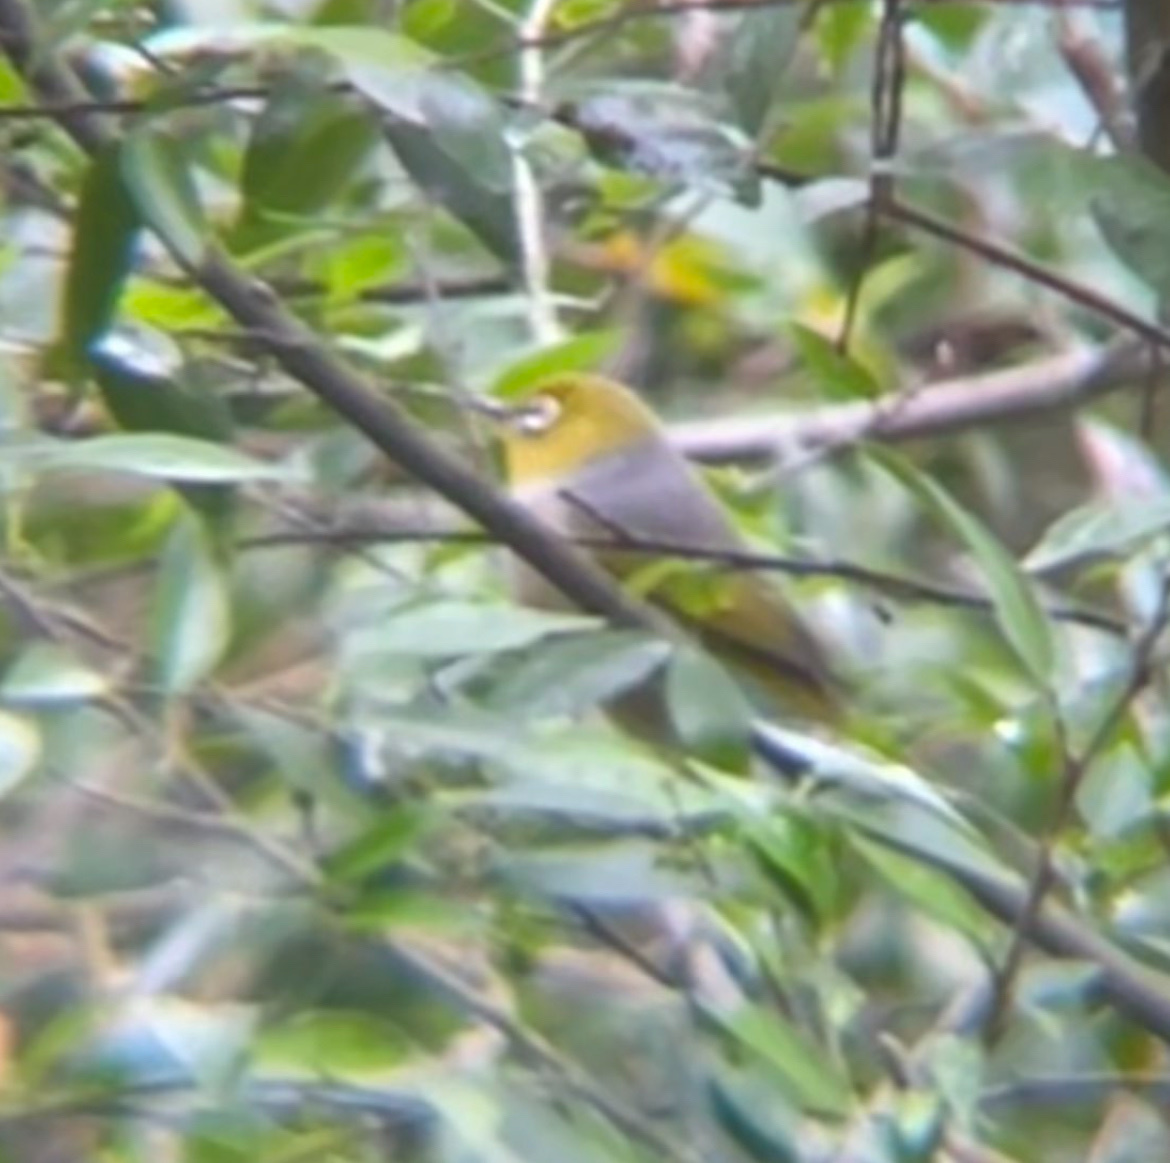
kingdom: Animalia
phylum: Chordata
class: Aves
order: Passeriformes
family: Zosteropidae
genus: Zosterops
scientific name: Zosterops lateralis
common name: Silvereye
